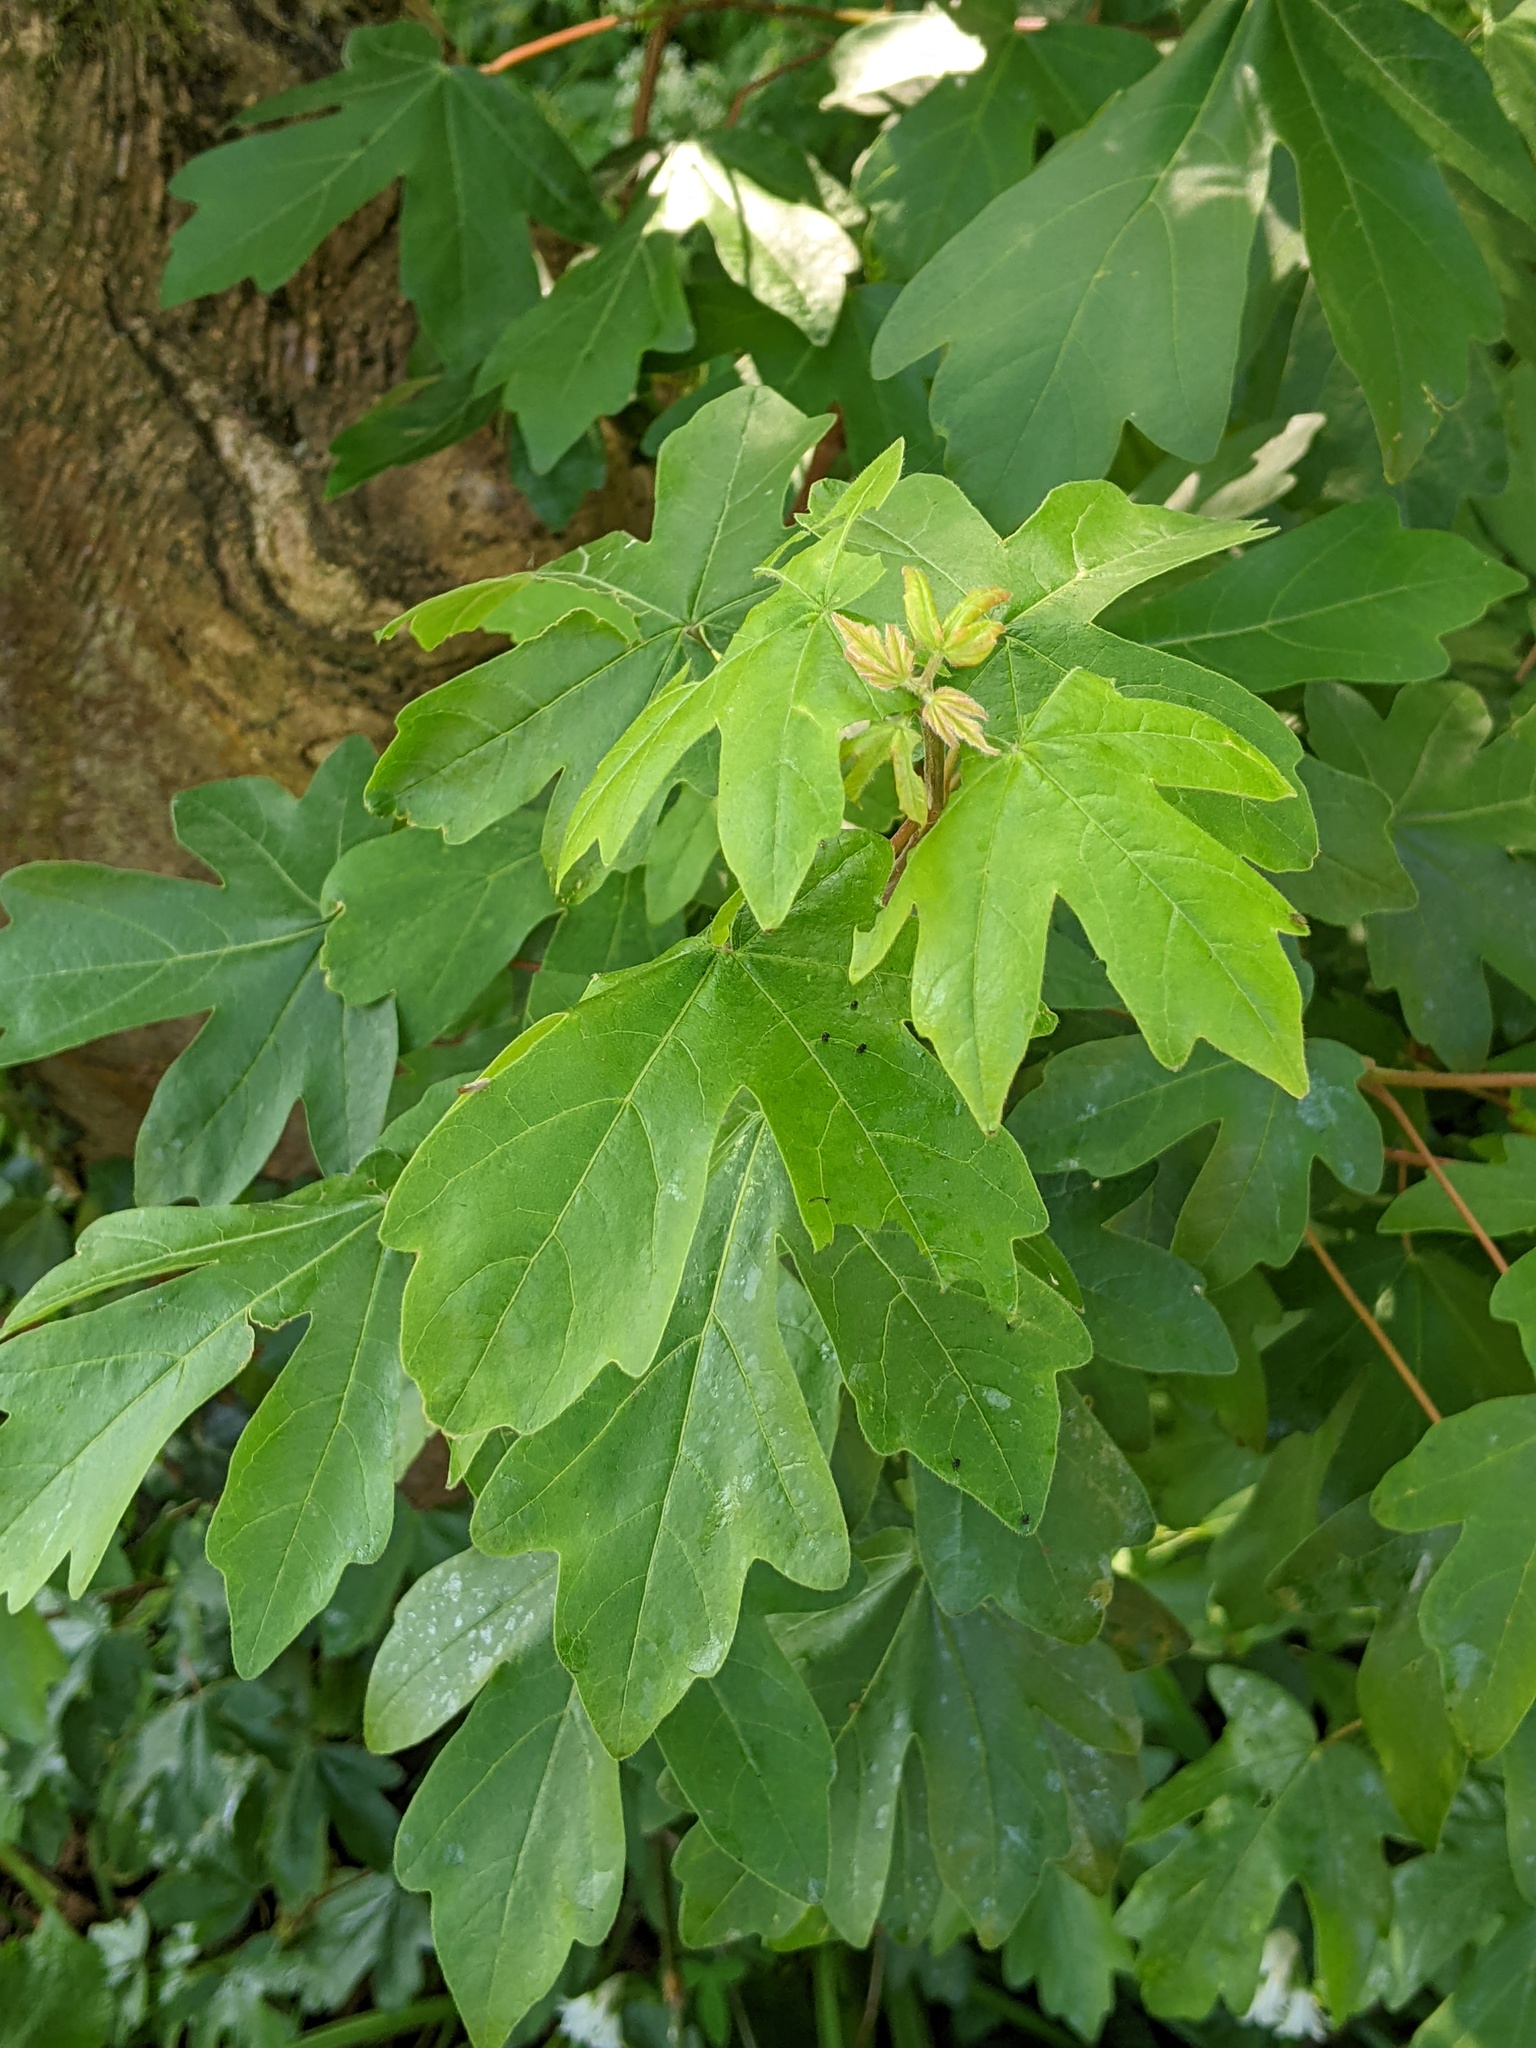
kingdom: Plantae
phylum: Tracheophyta
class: Magnoliopsida
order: Sapindales
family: Sapindaceae
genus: Acer
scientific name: Acer campestre
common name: Field maple
